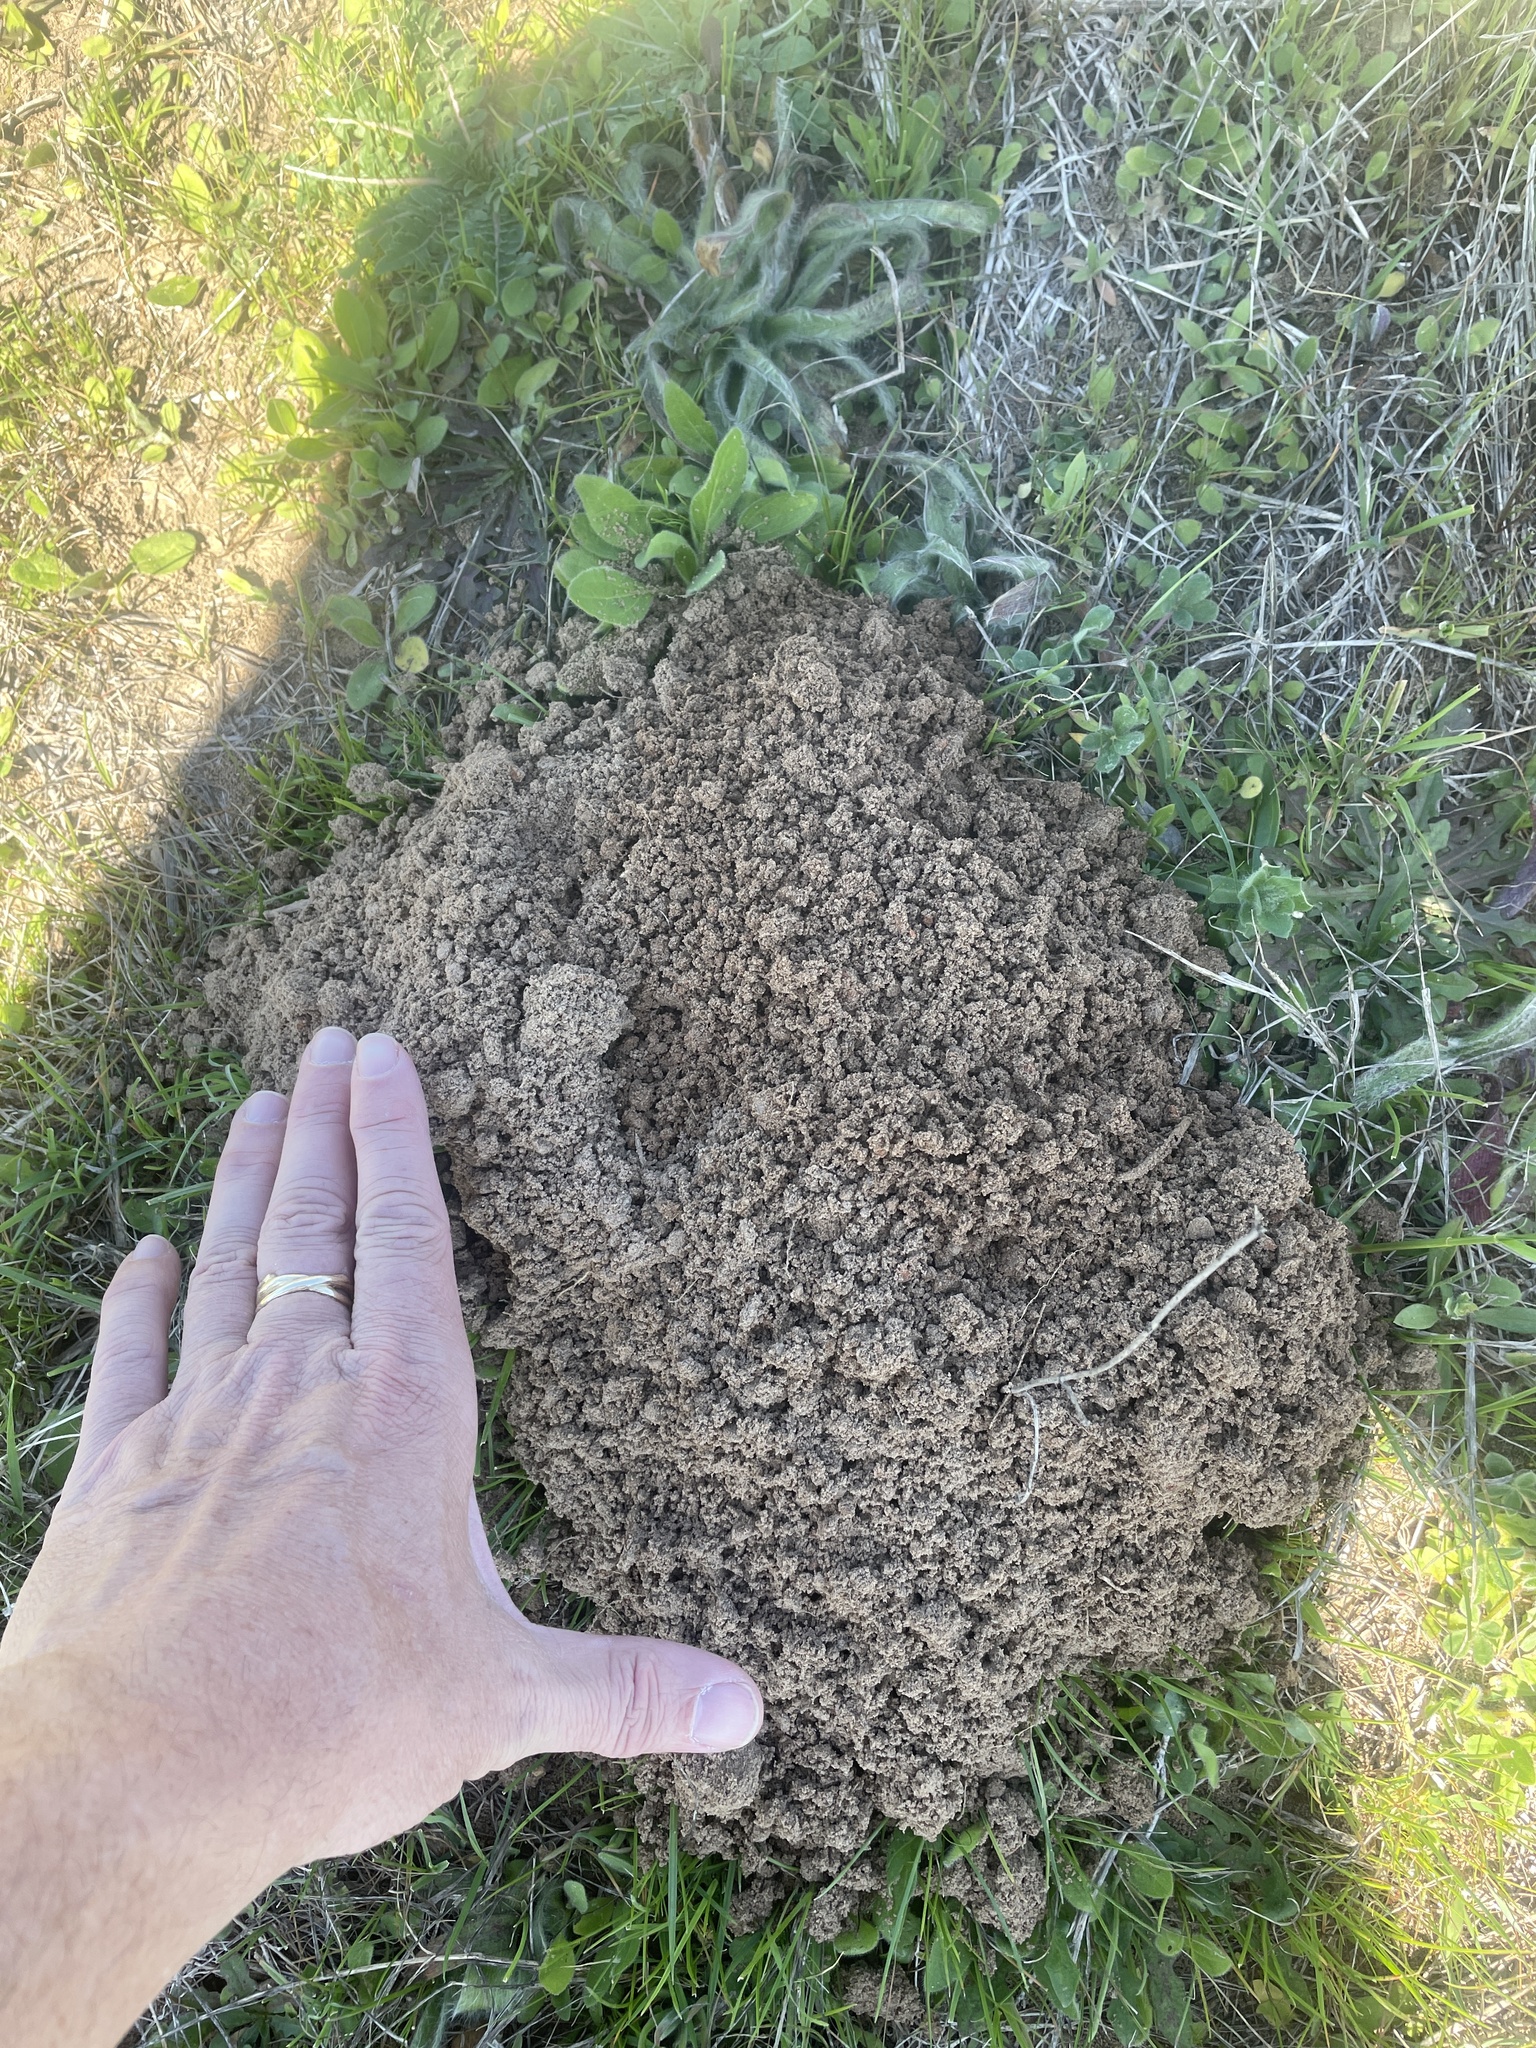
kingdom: Animalia
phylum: Chordata
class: Mammalia
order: Rodentia
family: Geomyidae
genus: Geomys
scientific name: Geomys breviceps
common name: Baird's pocket gopher
